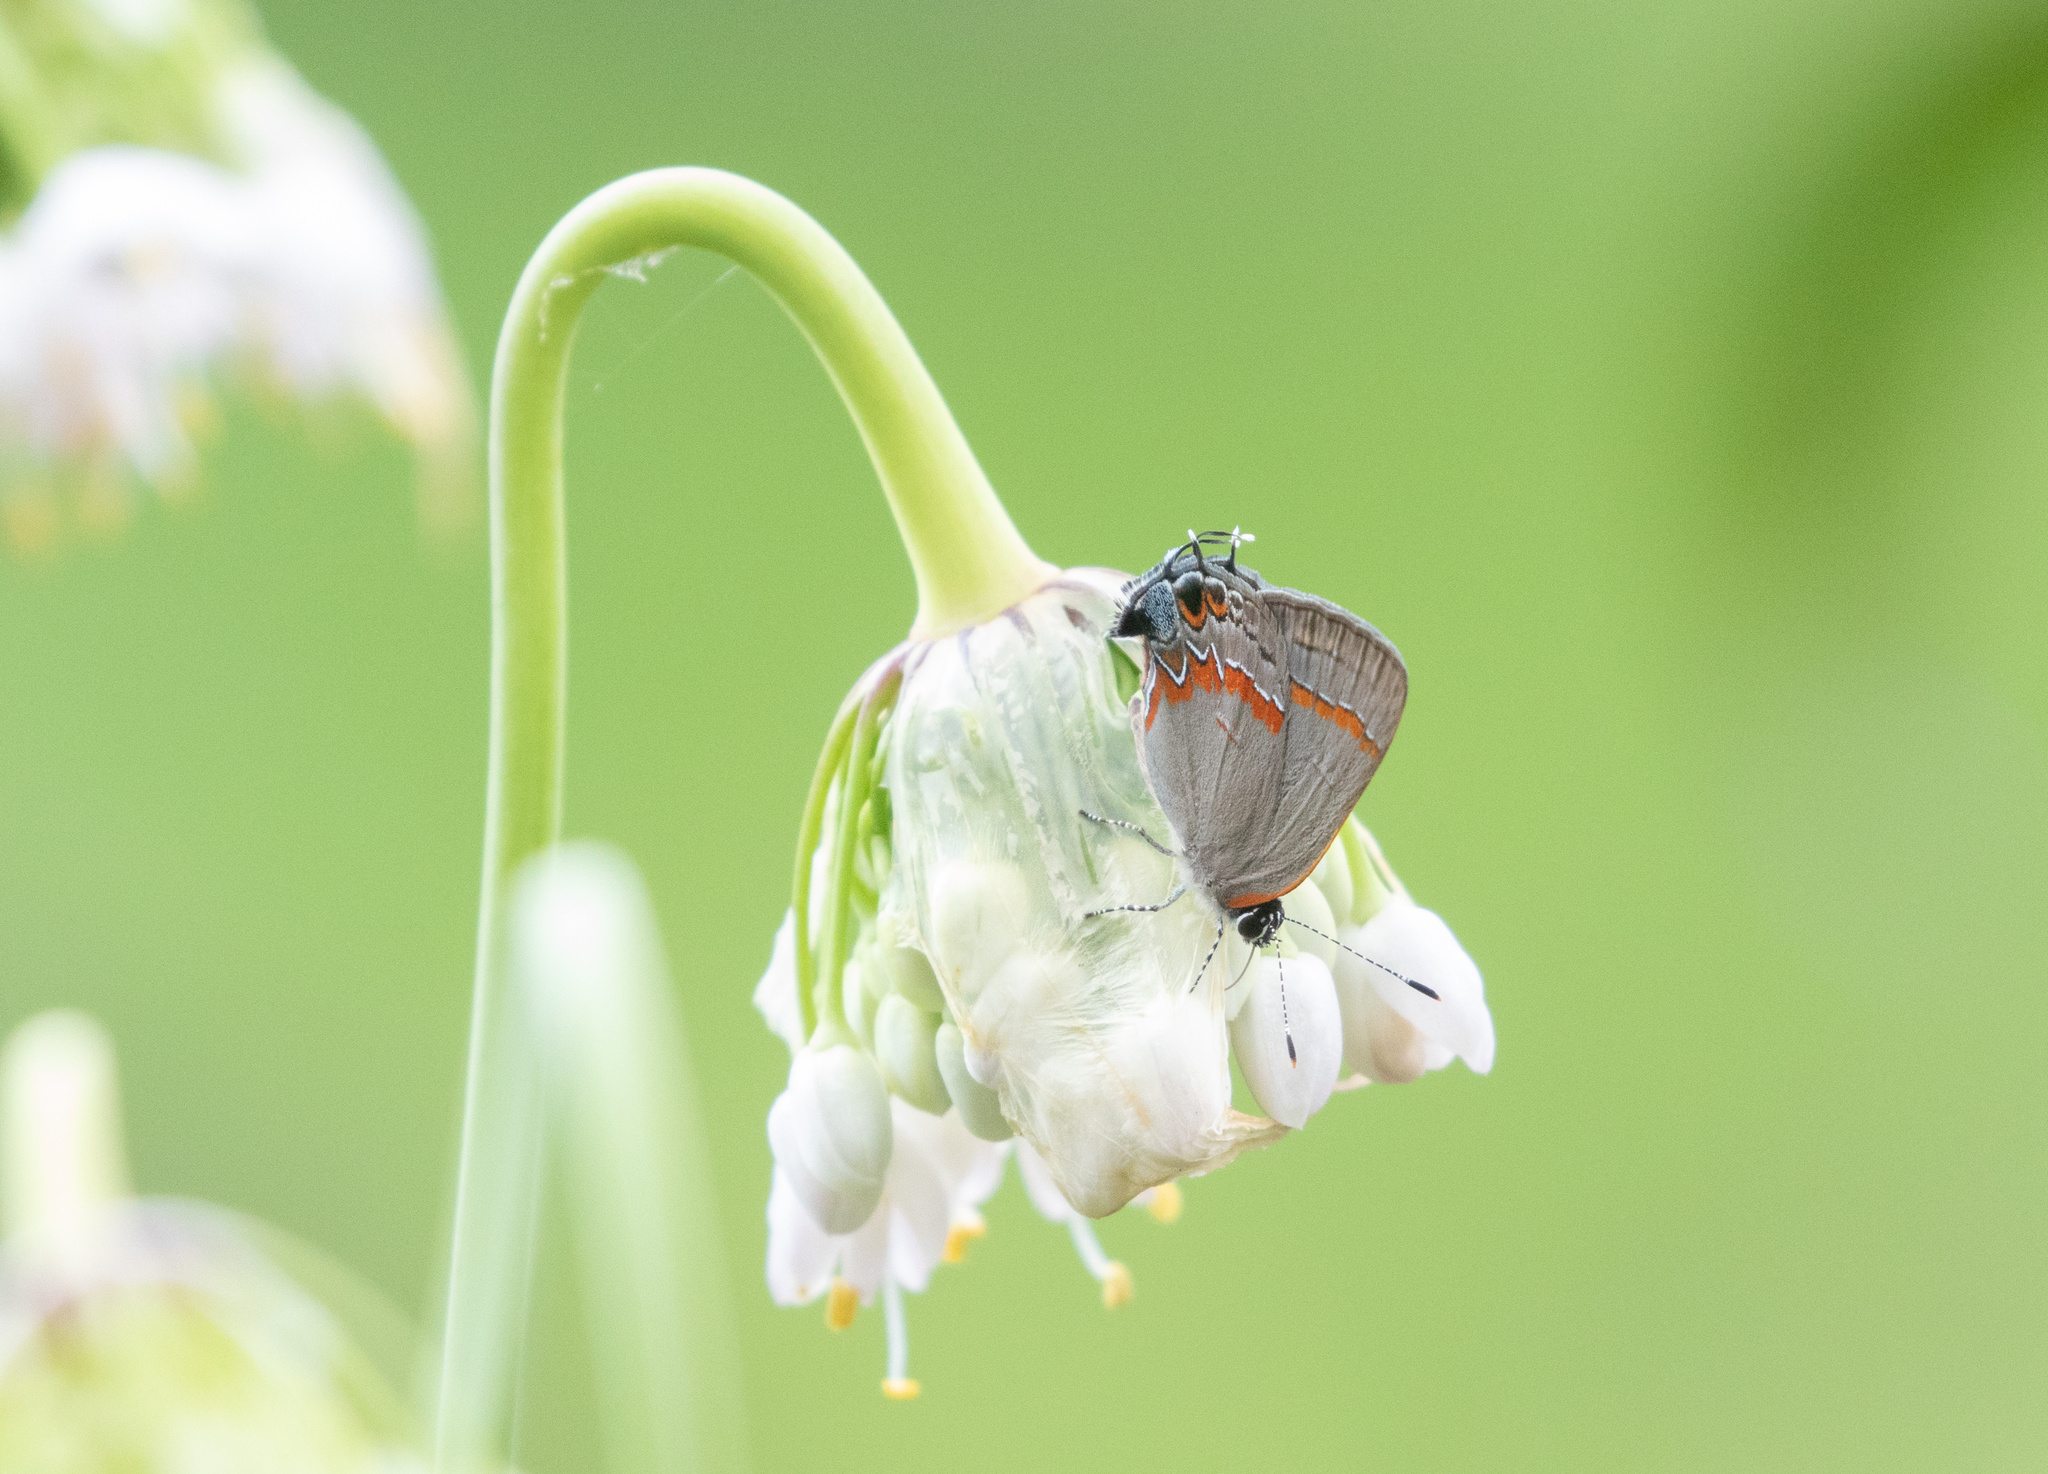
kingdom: Animalia
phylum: Arthropoda
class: Insecta
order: Lepidoptera
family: Lycaenidae
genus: Calycopis
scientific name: Calycopis cecrops
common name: Red-banded hairstreak
